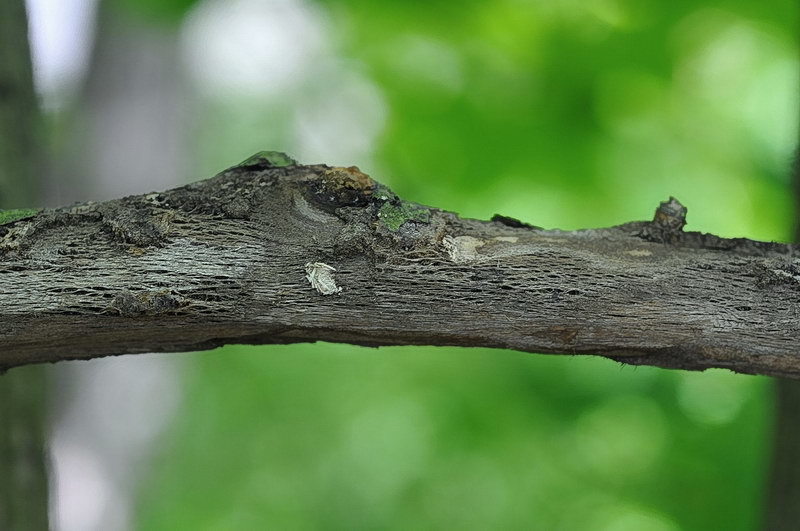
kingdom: Animalia
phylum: Arthropoda
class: Insecta
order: Coleoptera
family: Cerambycidae
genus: Oplosia
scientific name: Oplosia cinerea
